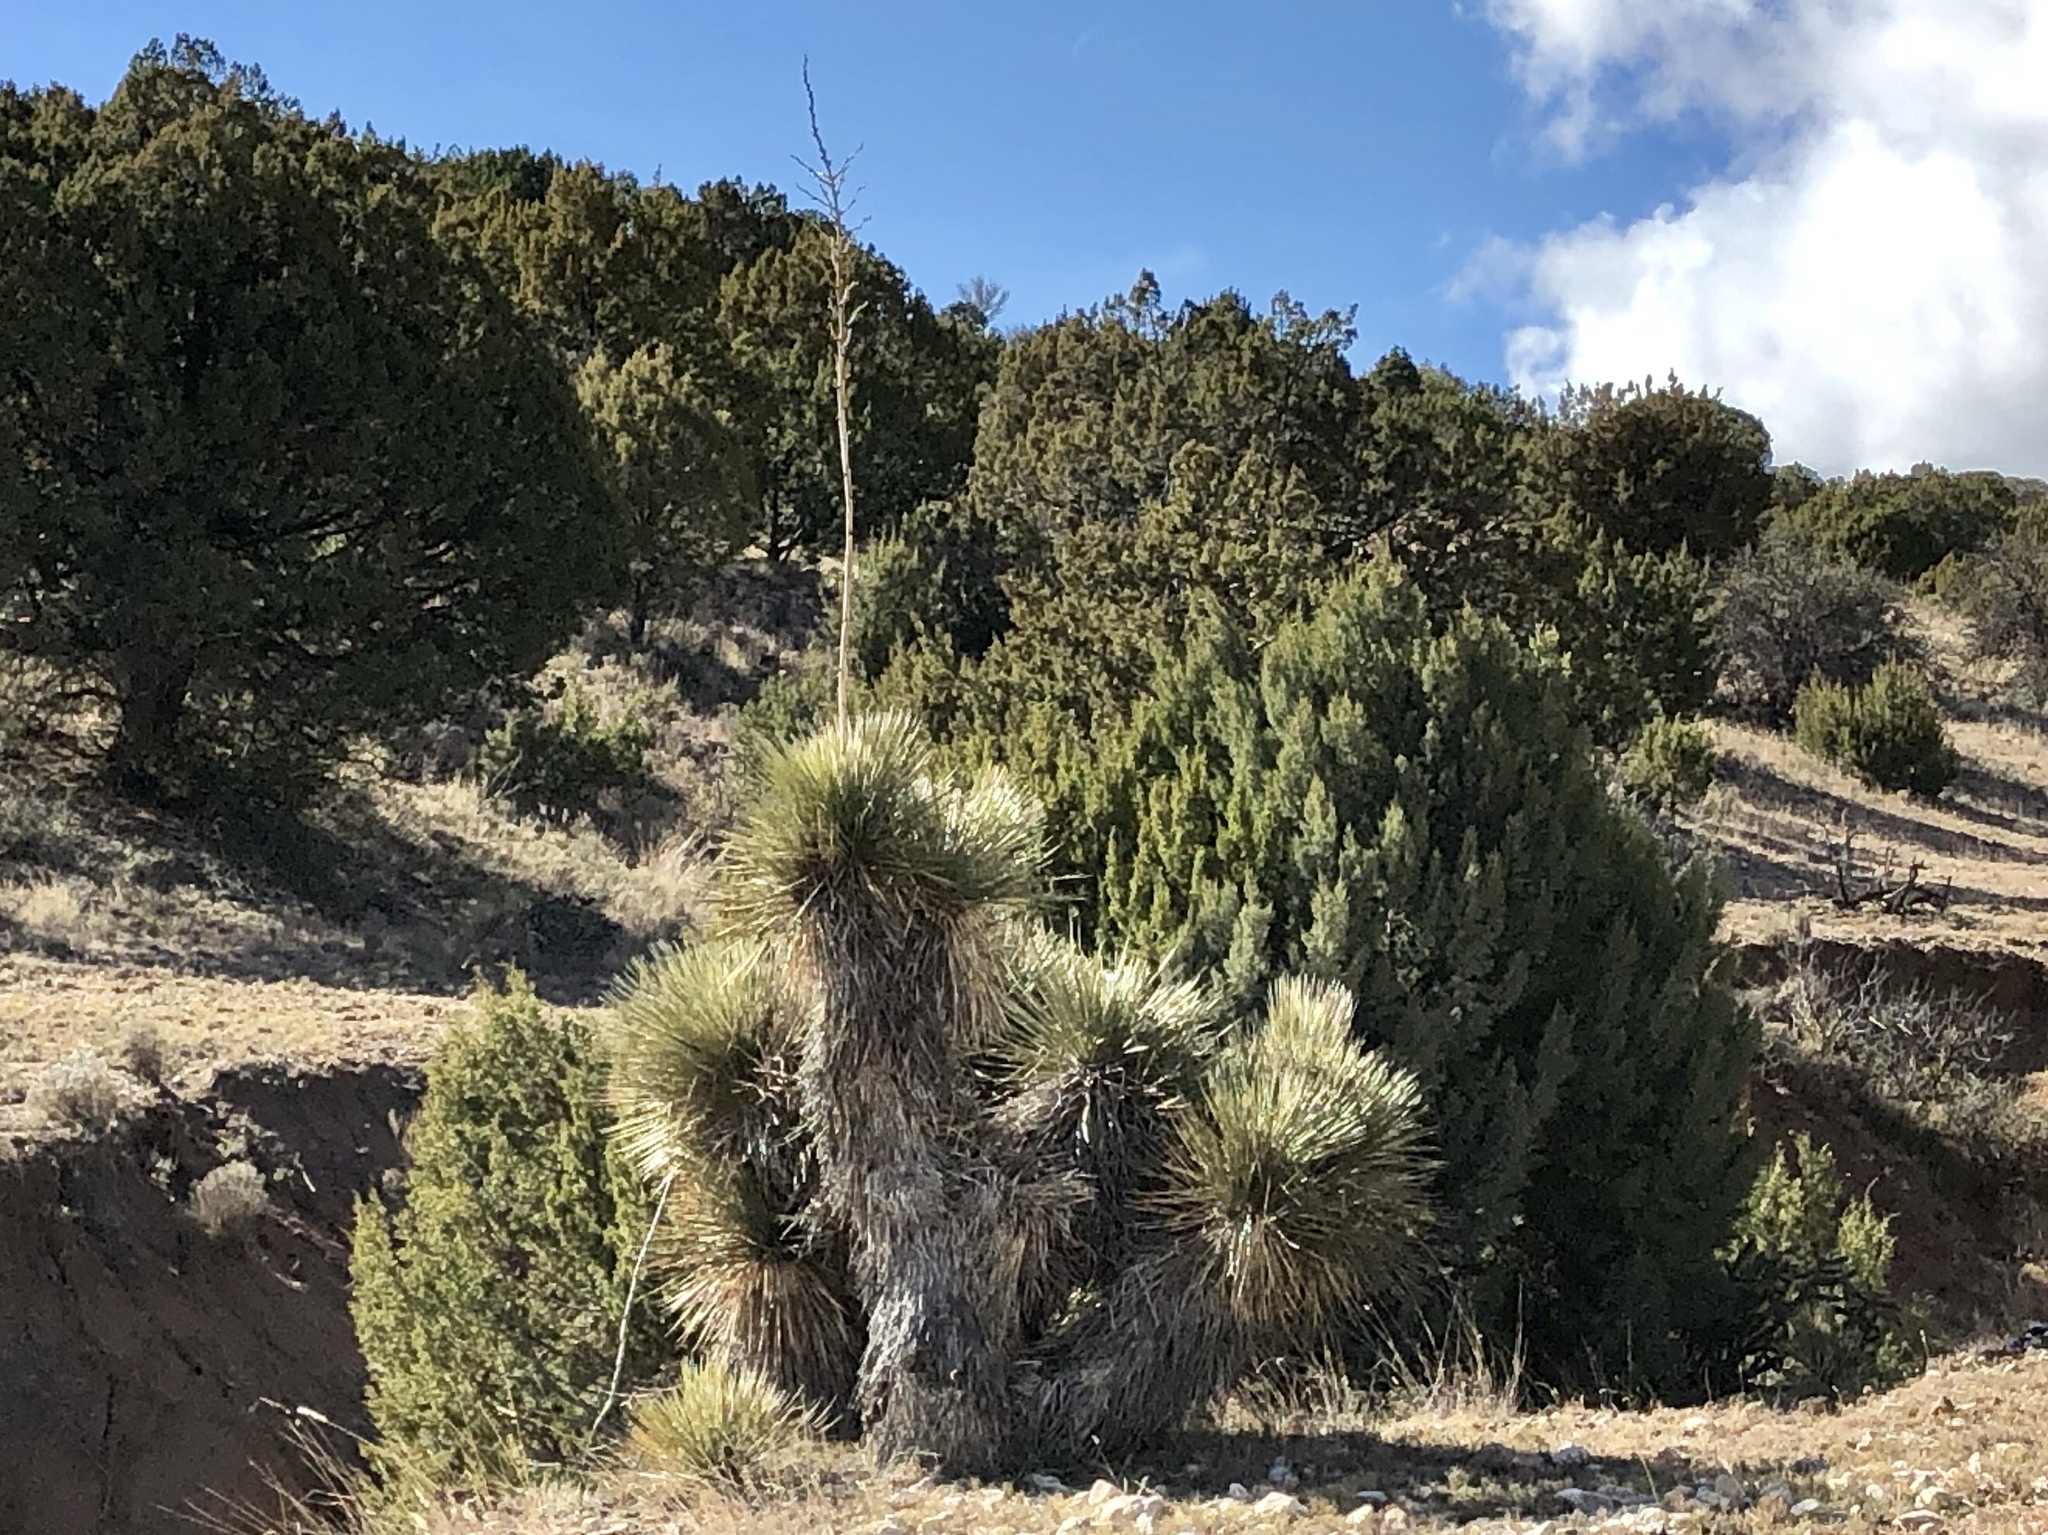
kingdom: Plantae
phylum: Tracheophyta
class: Liliopsida
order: Asparagales
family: Asparagaceae
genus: Yucca
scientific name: Yucca elata
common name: Palmella
